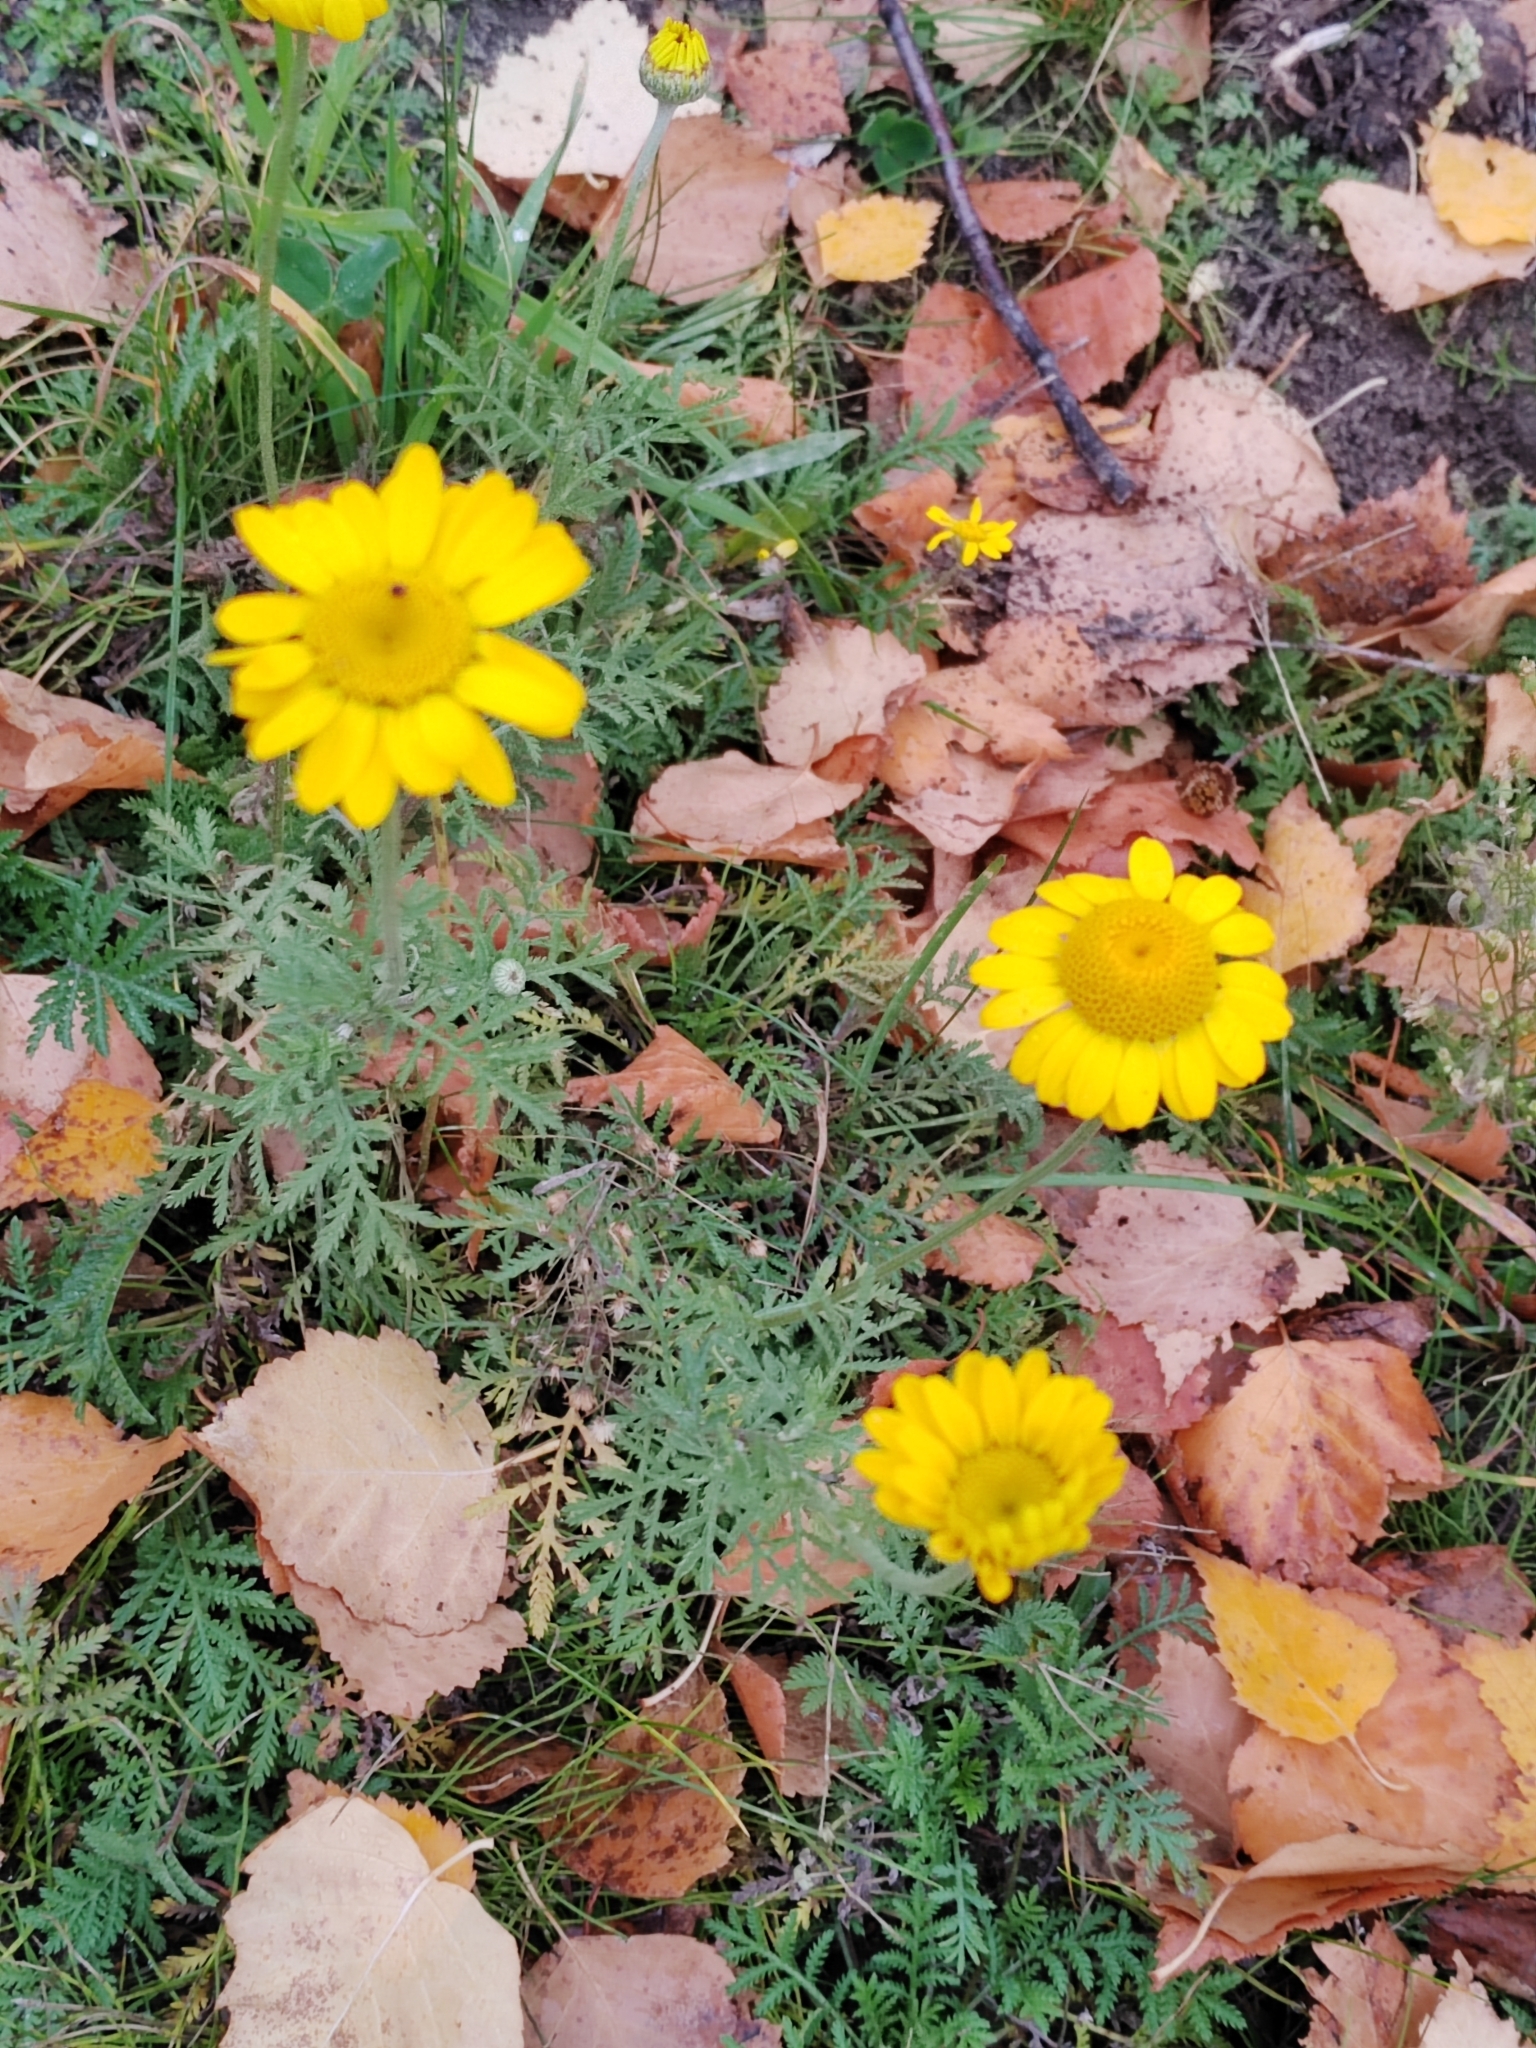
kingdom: Plantae
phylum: Tracheophyta
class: Magnoliopsida
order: Asterales
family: Asteraceae
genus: Cota
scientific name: Cota tinctoria
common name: Golden chamomile
